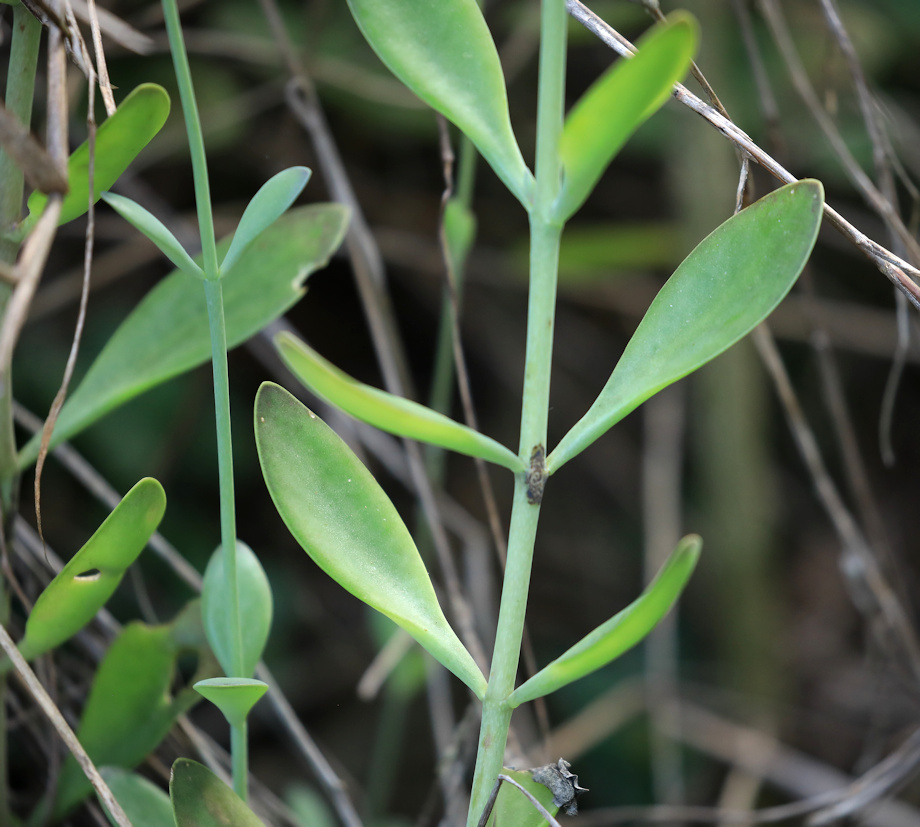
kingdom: Plantae
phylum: Tracheophyta
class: Magnoliopsida
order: Saxifragales
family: Crassulaceae
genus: Kalanchoe
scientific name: Kalanchoe rotundifolia
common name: Common kalanchoe
